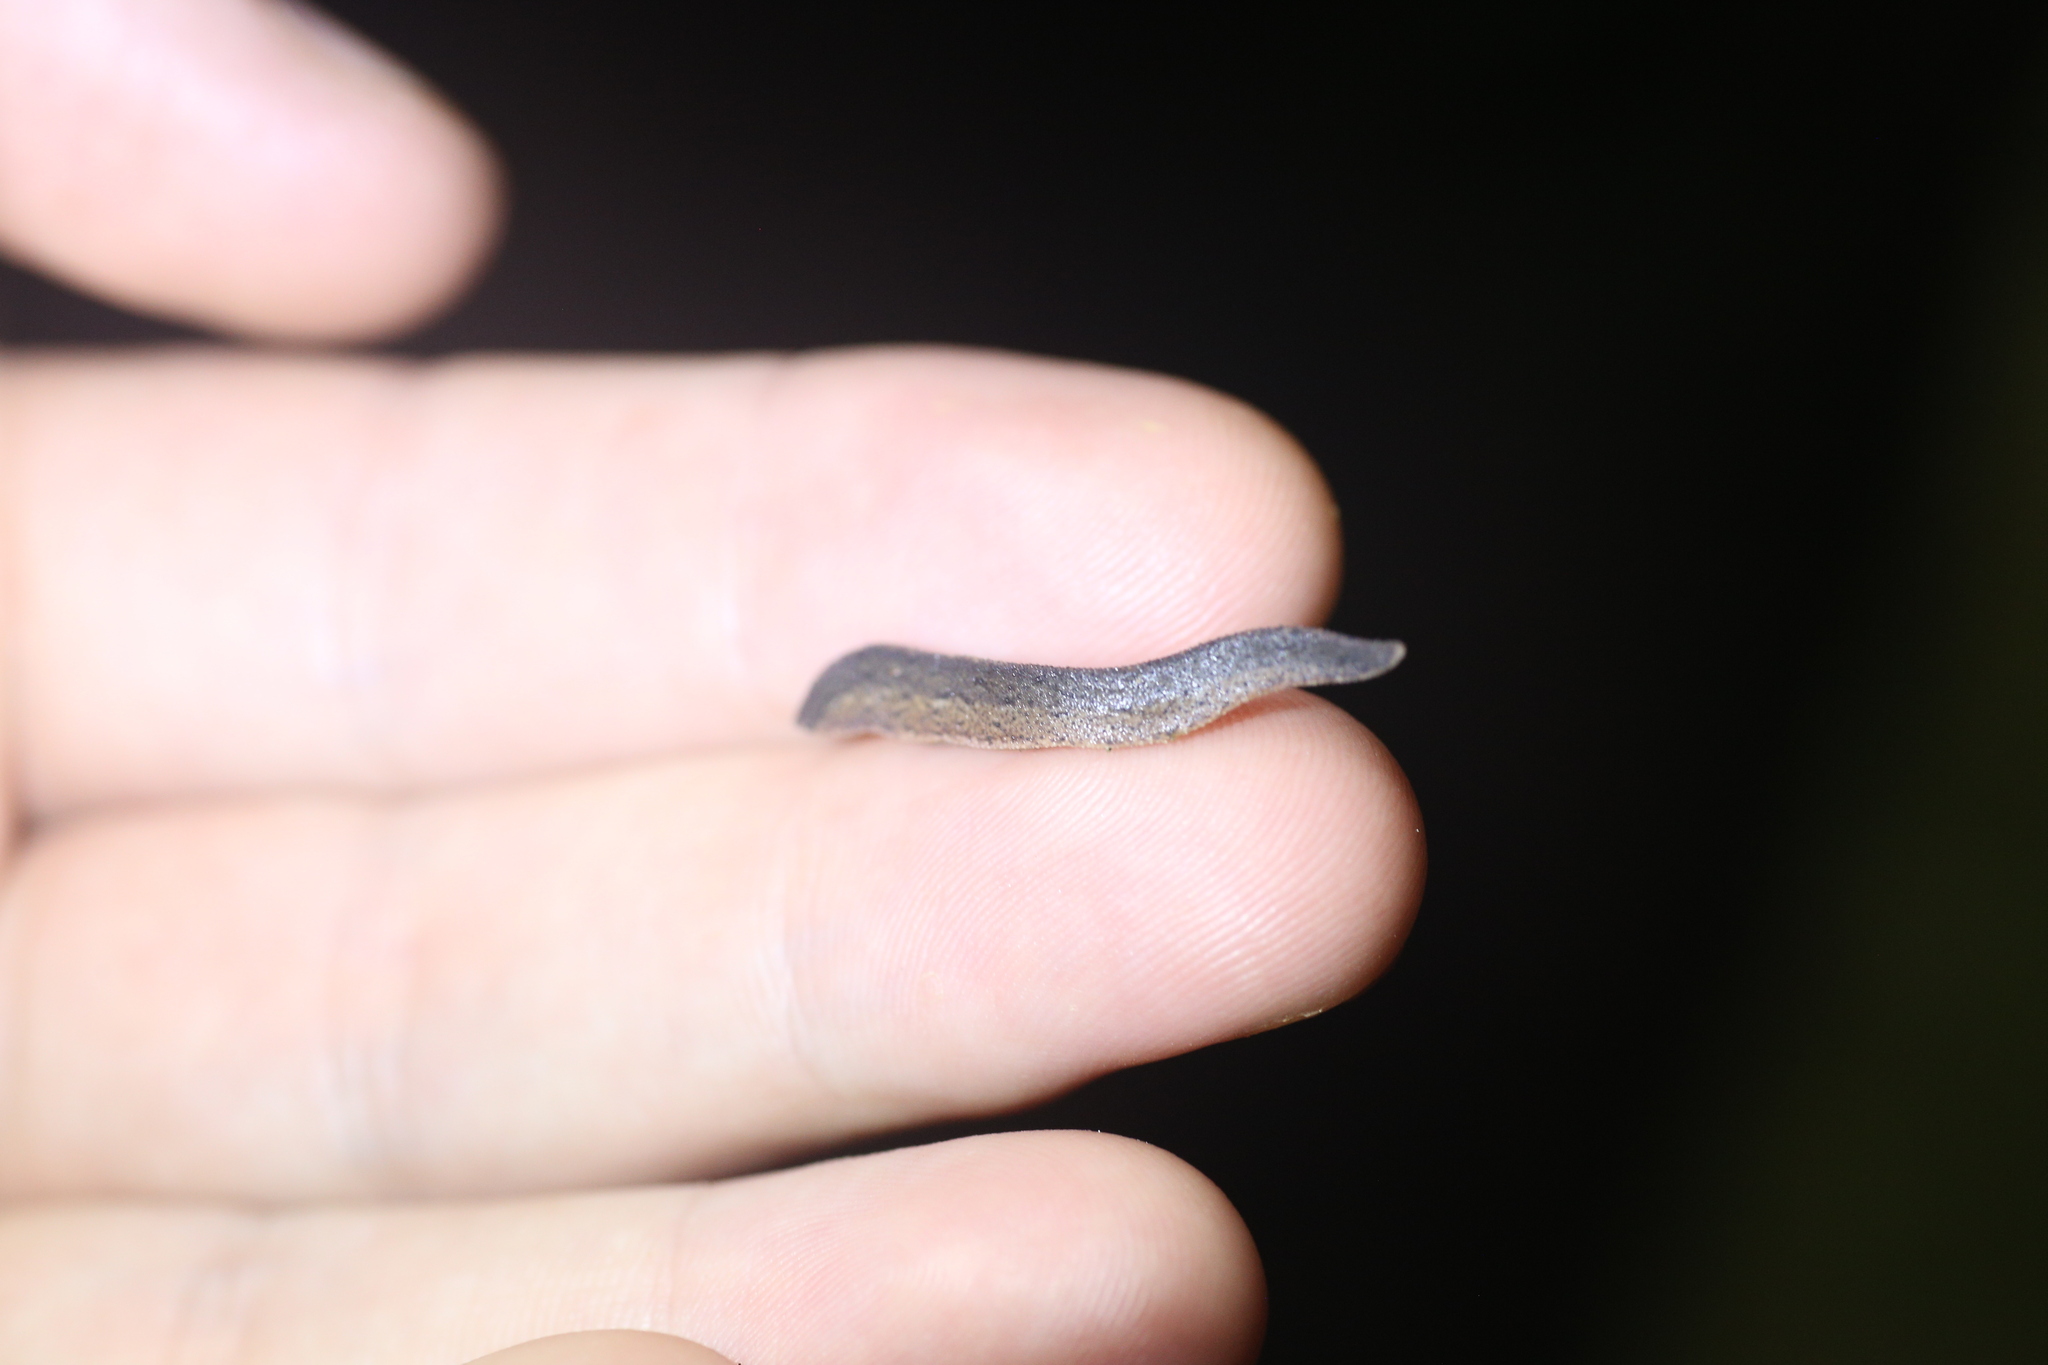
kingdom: Animalia
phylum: Mollusca
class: Gastropoda
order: Systellommatophora
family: Rathouisiidae
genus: Atopos
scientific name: Atopos australis
